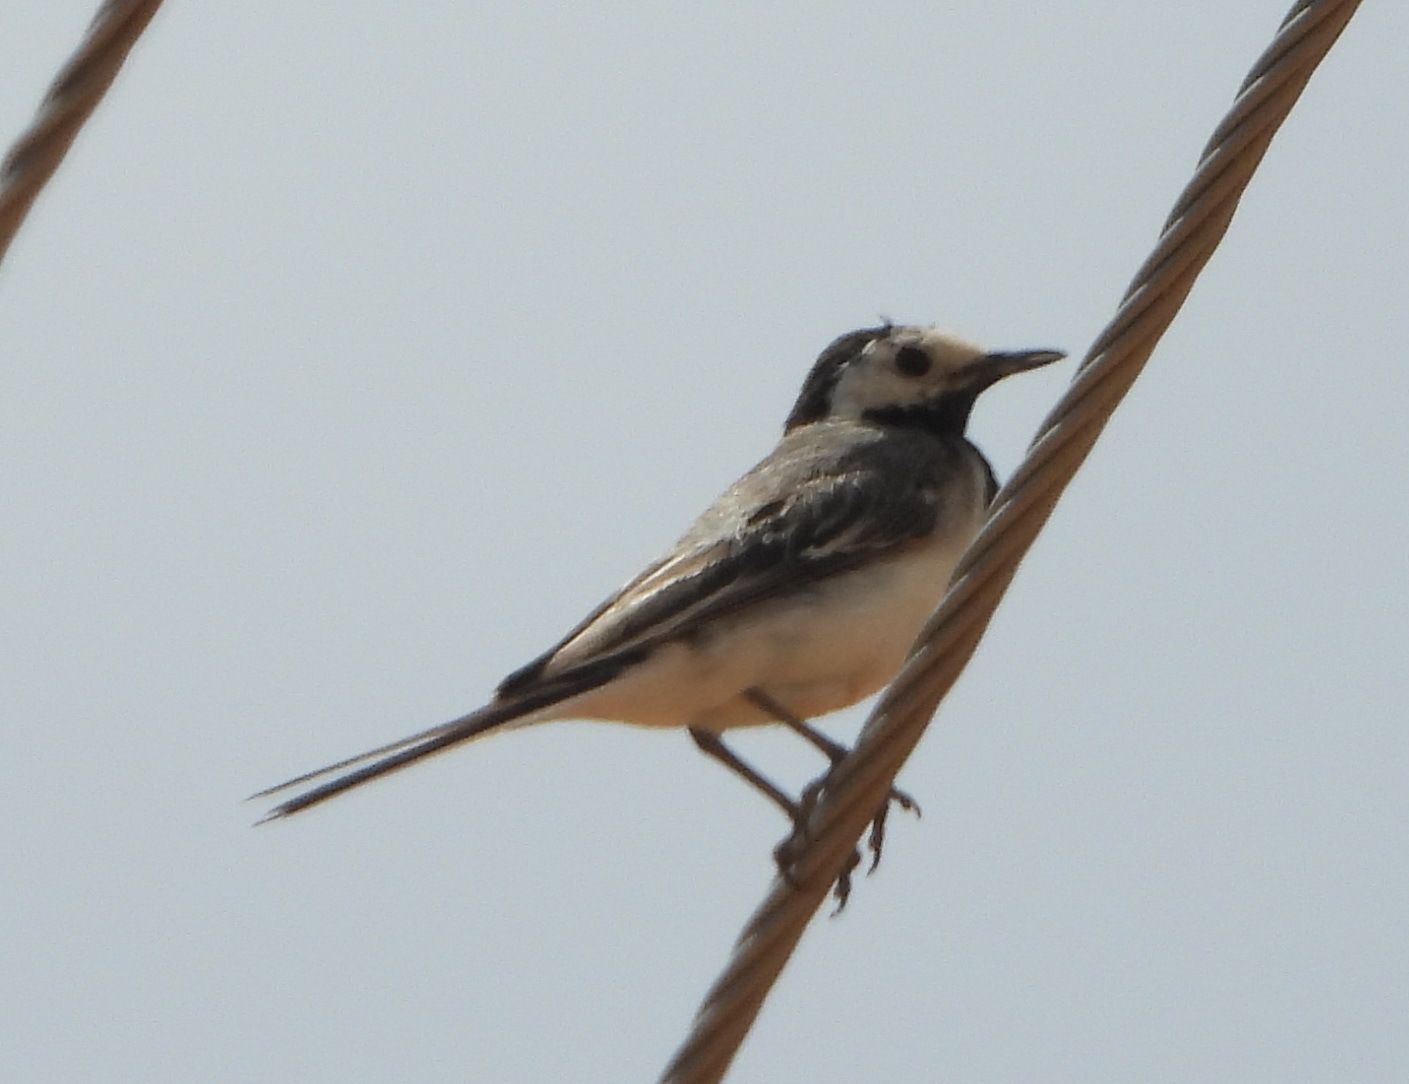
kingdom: Animalia
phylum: Chordata
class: Aves
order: Passeriformes
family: Motacillidae
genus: Motacilla
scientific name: Motacilla alba
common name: White wagtail
